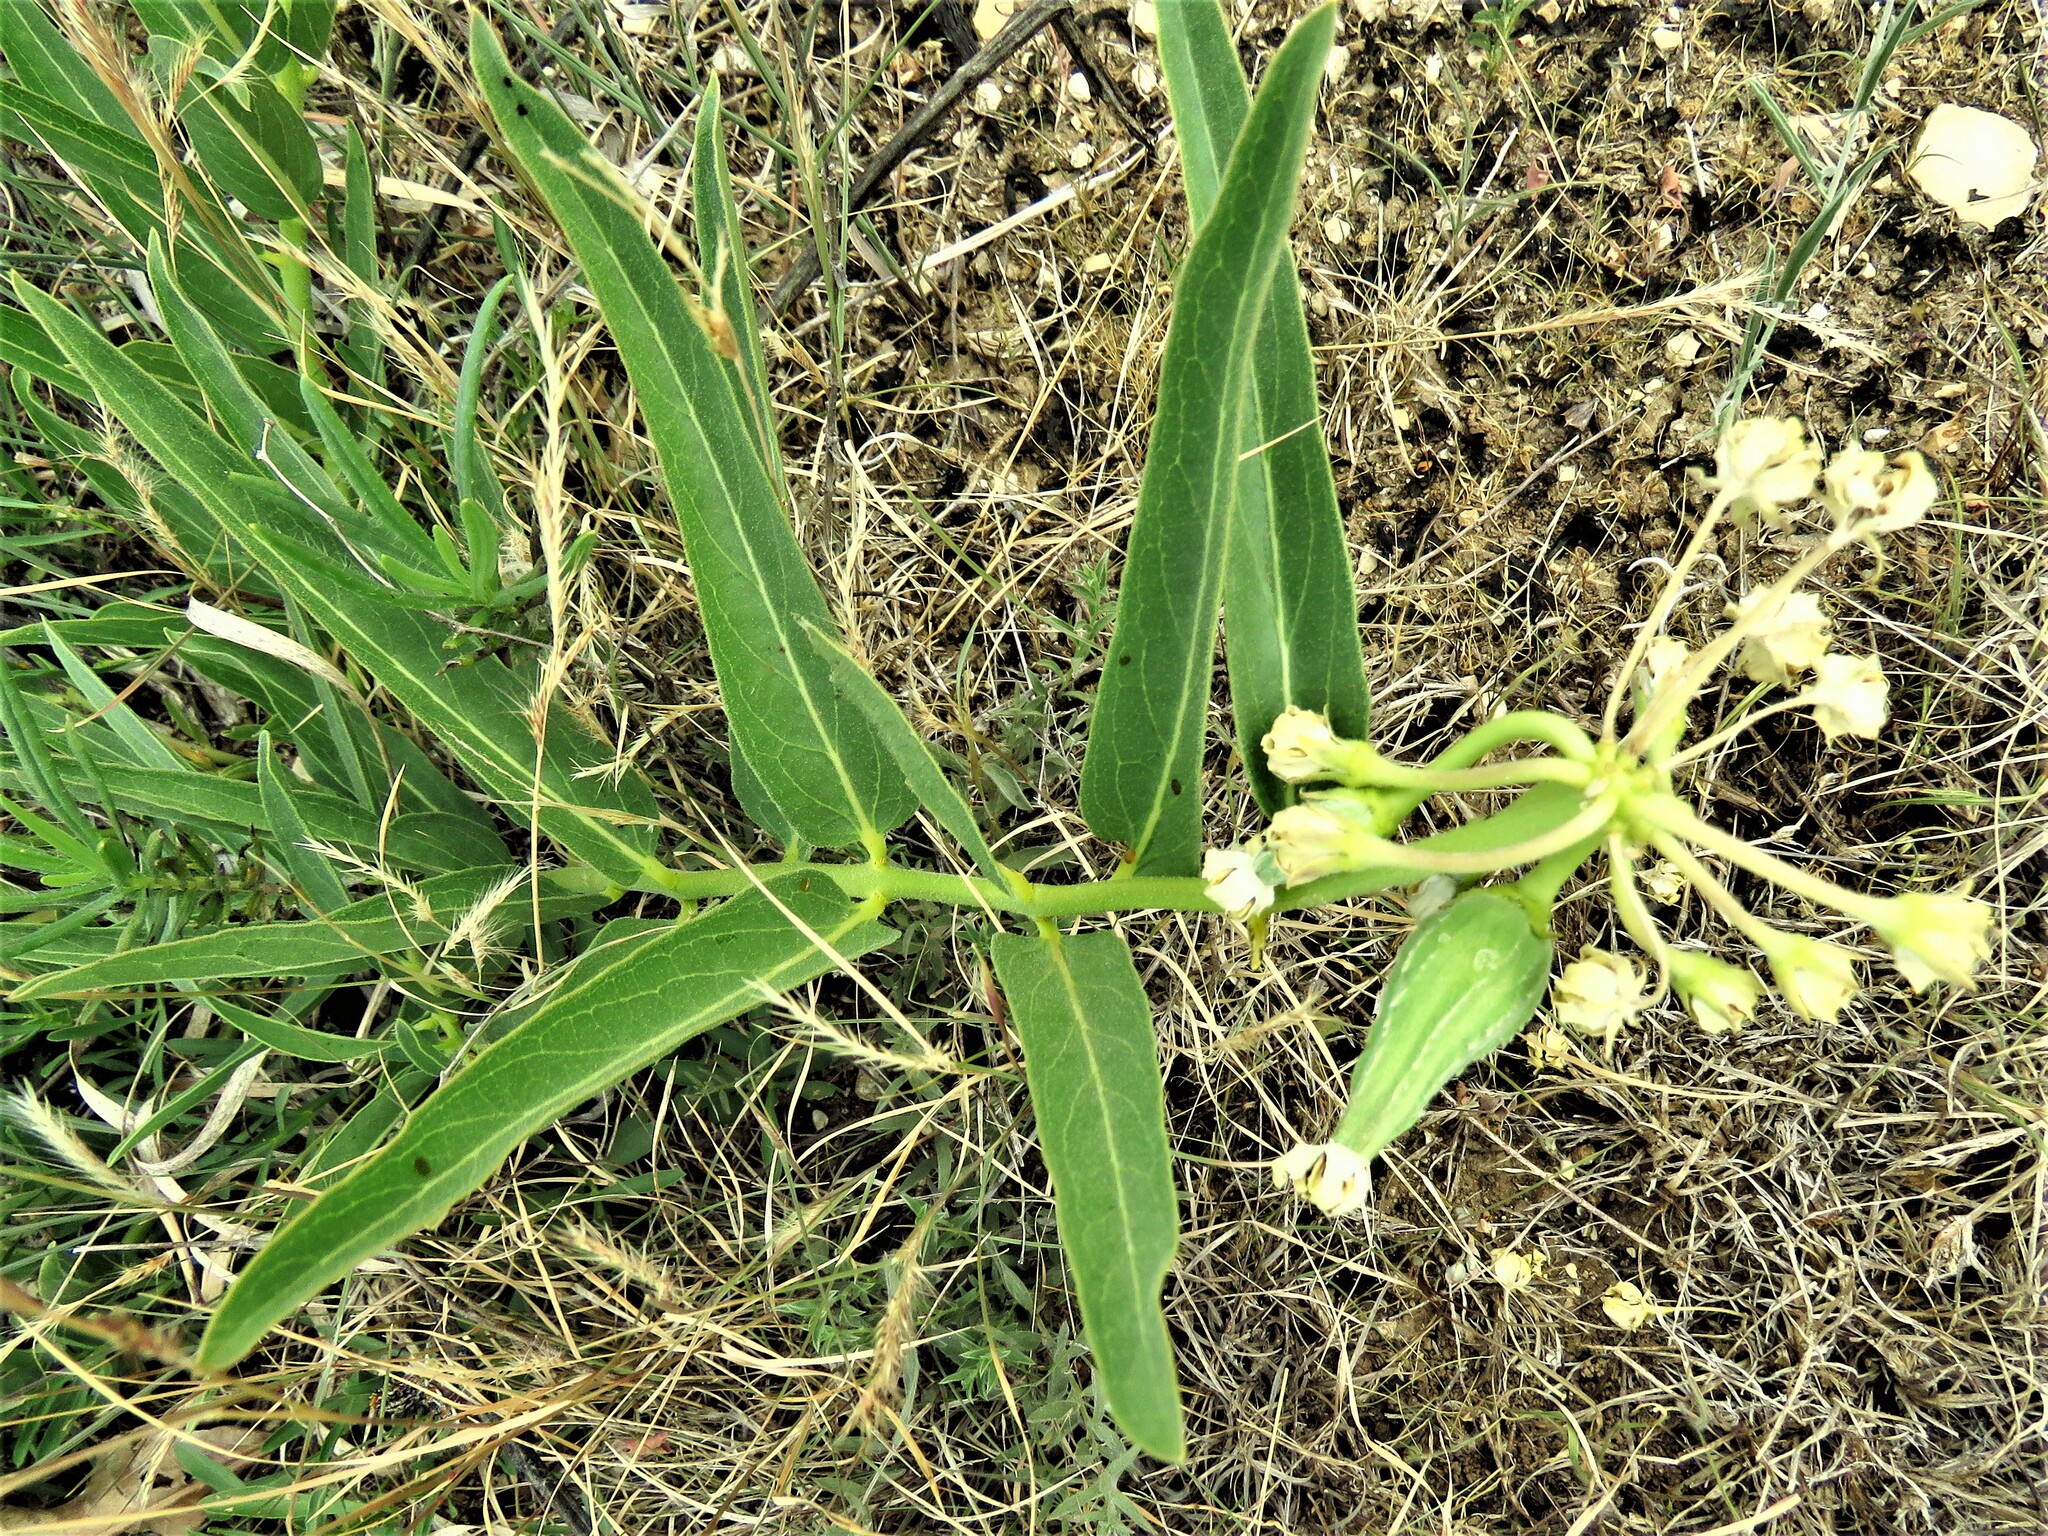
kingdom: Plantae
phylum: Tracheophyta
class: Magnoliopsida
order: Gentianales
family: Apocynaceae
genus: Asclepias
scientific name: Asclepias asperula
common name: Antelope horns
